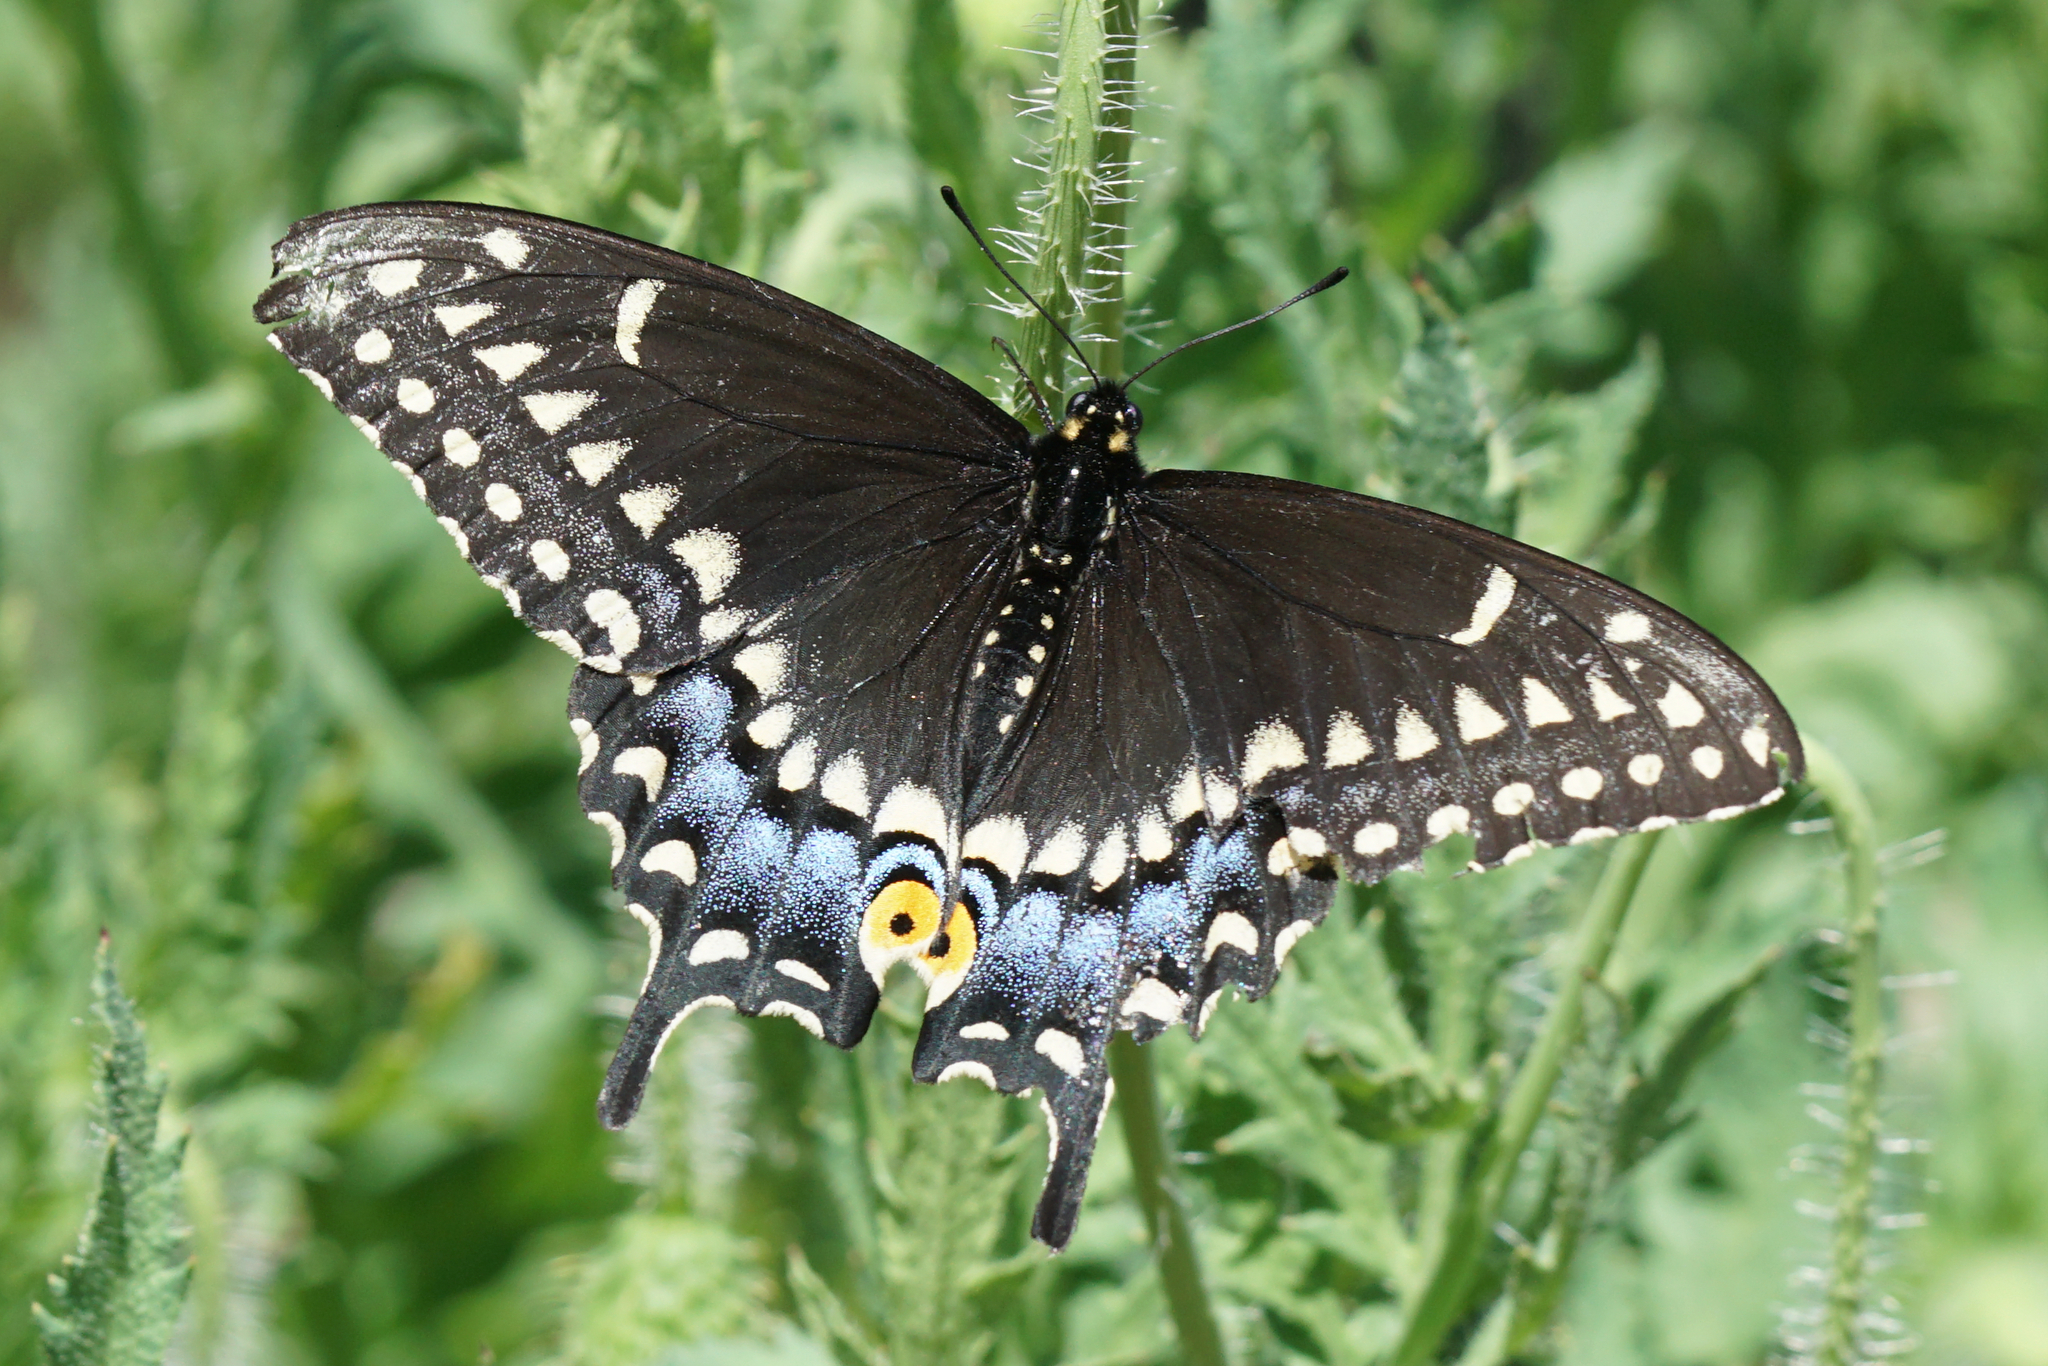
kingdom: Animalia
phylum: Arthropoda
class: Insecta
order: Lepidoptera
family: Papilionidae
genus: Papilio
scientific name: Papilio polyxenes
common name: Black swallowtail
